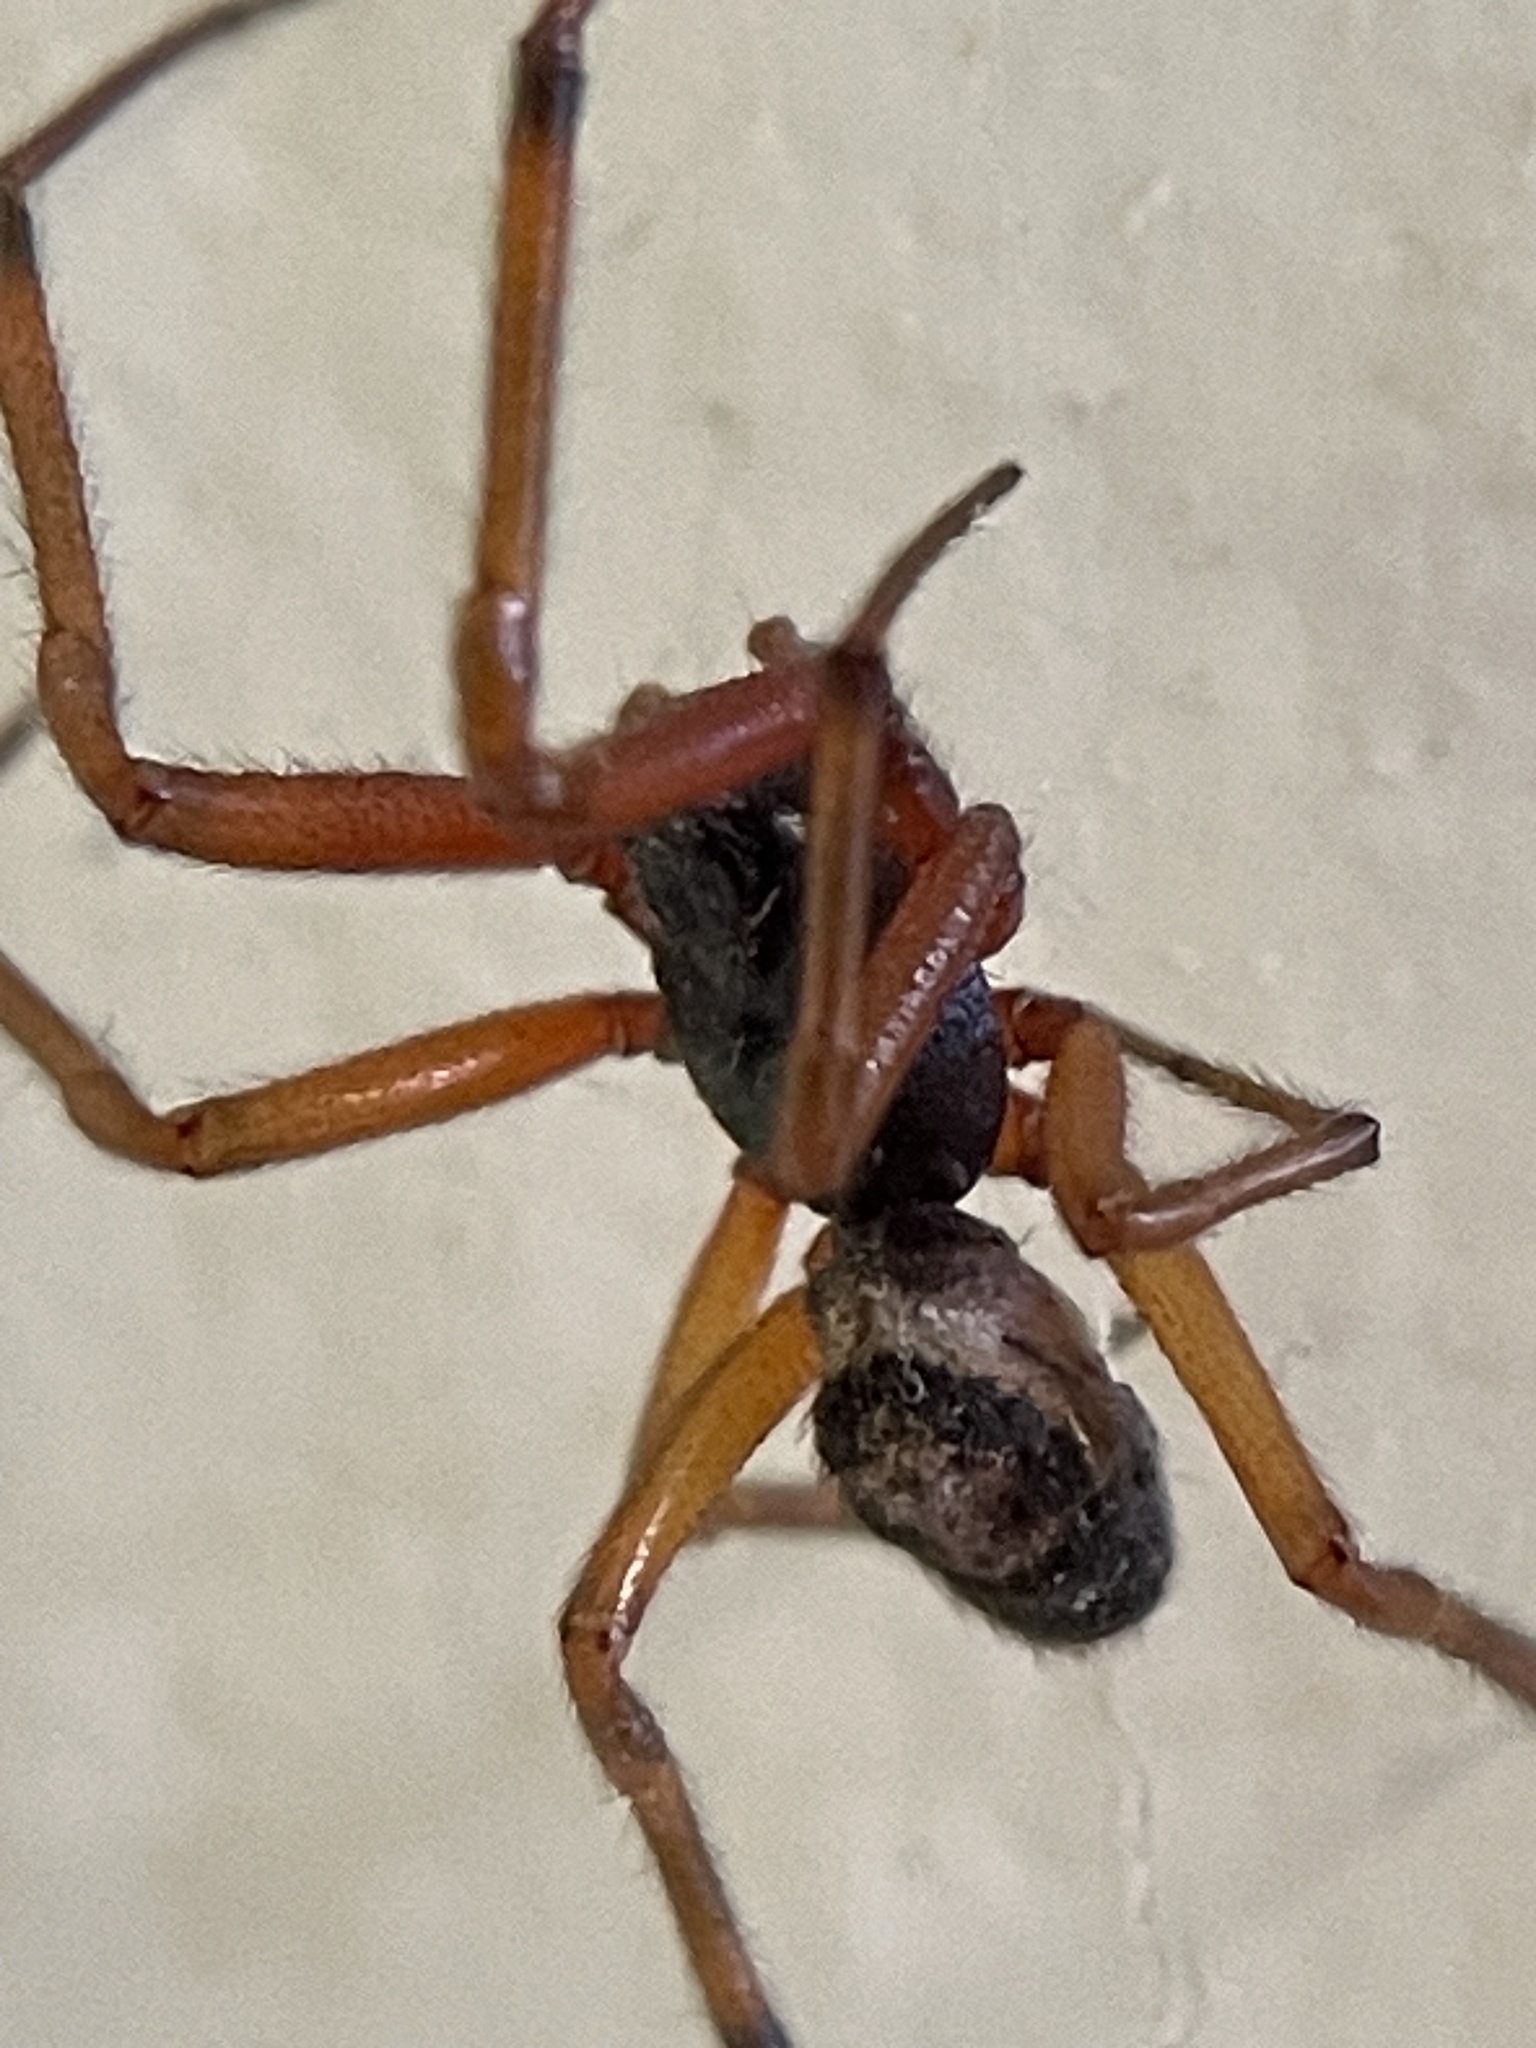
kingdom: Animalia
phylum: Arthropoda
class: Arachnida
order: Araneae
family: Theridiidae
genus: Steatoda
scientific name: Steatoda nobilis
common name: Cobweb weaver
